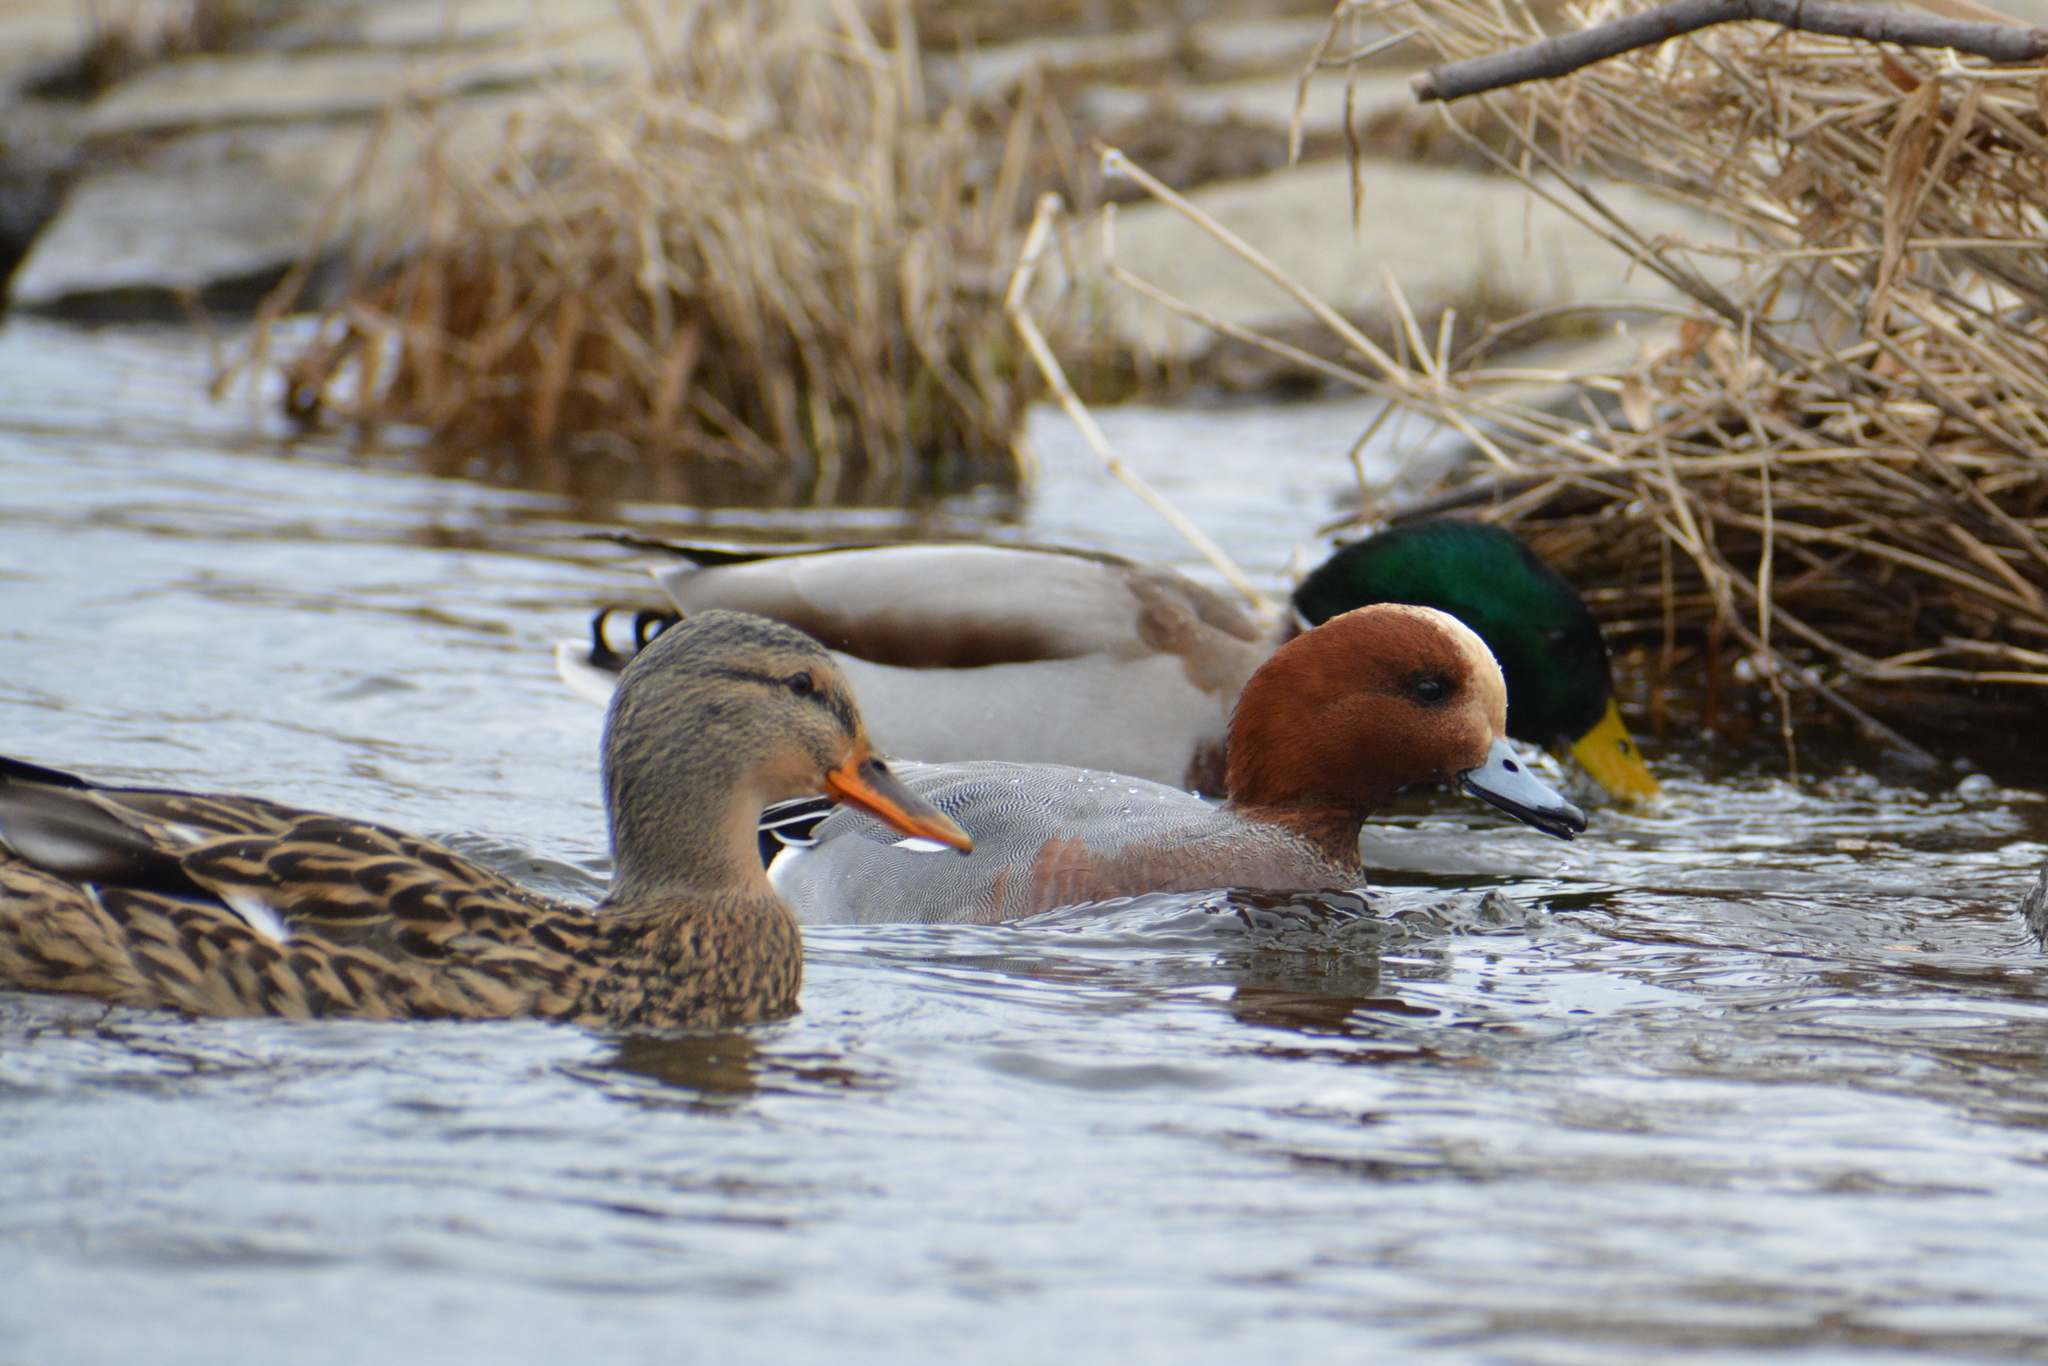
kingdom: Animalia
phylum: Chordata
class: Aves
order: Anseriformes
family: Anatidae
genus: Mareca
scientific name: Mareca penelope
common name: Eurasian wigeon
